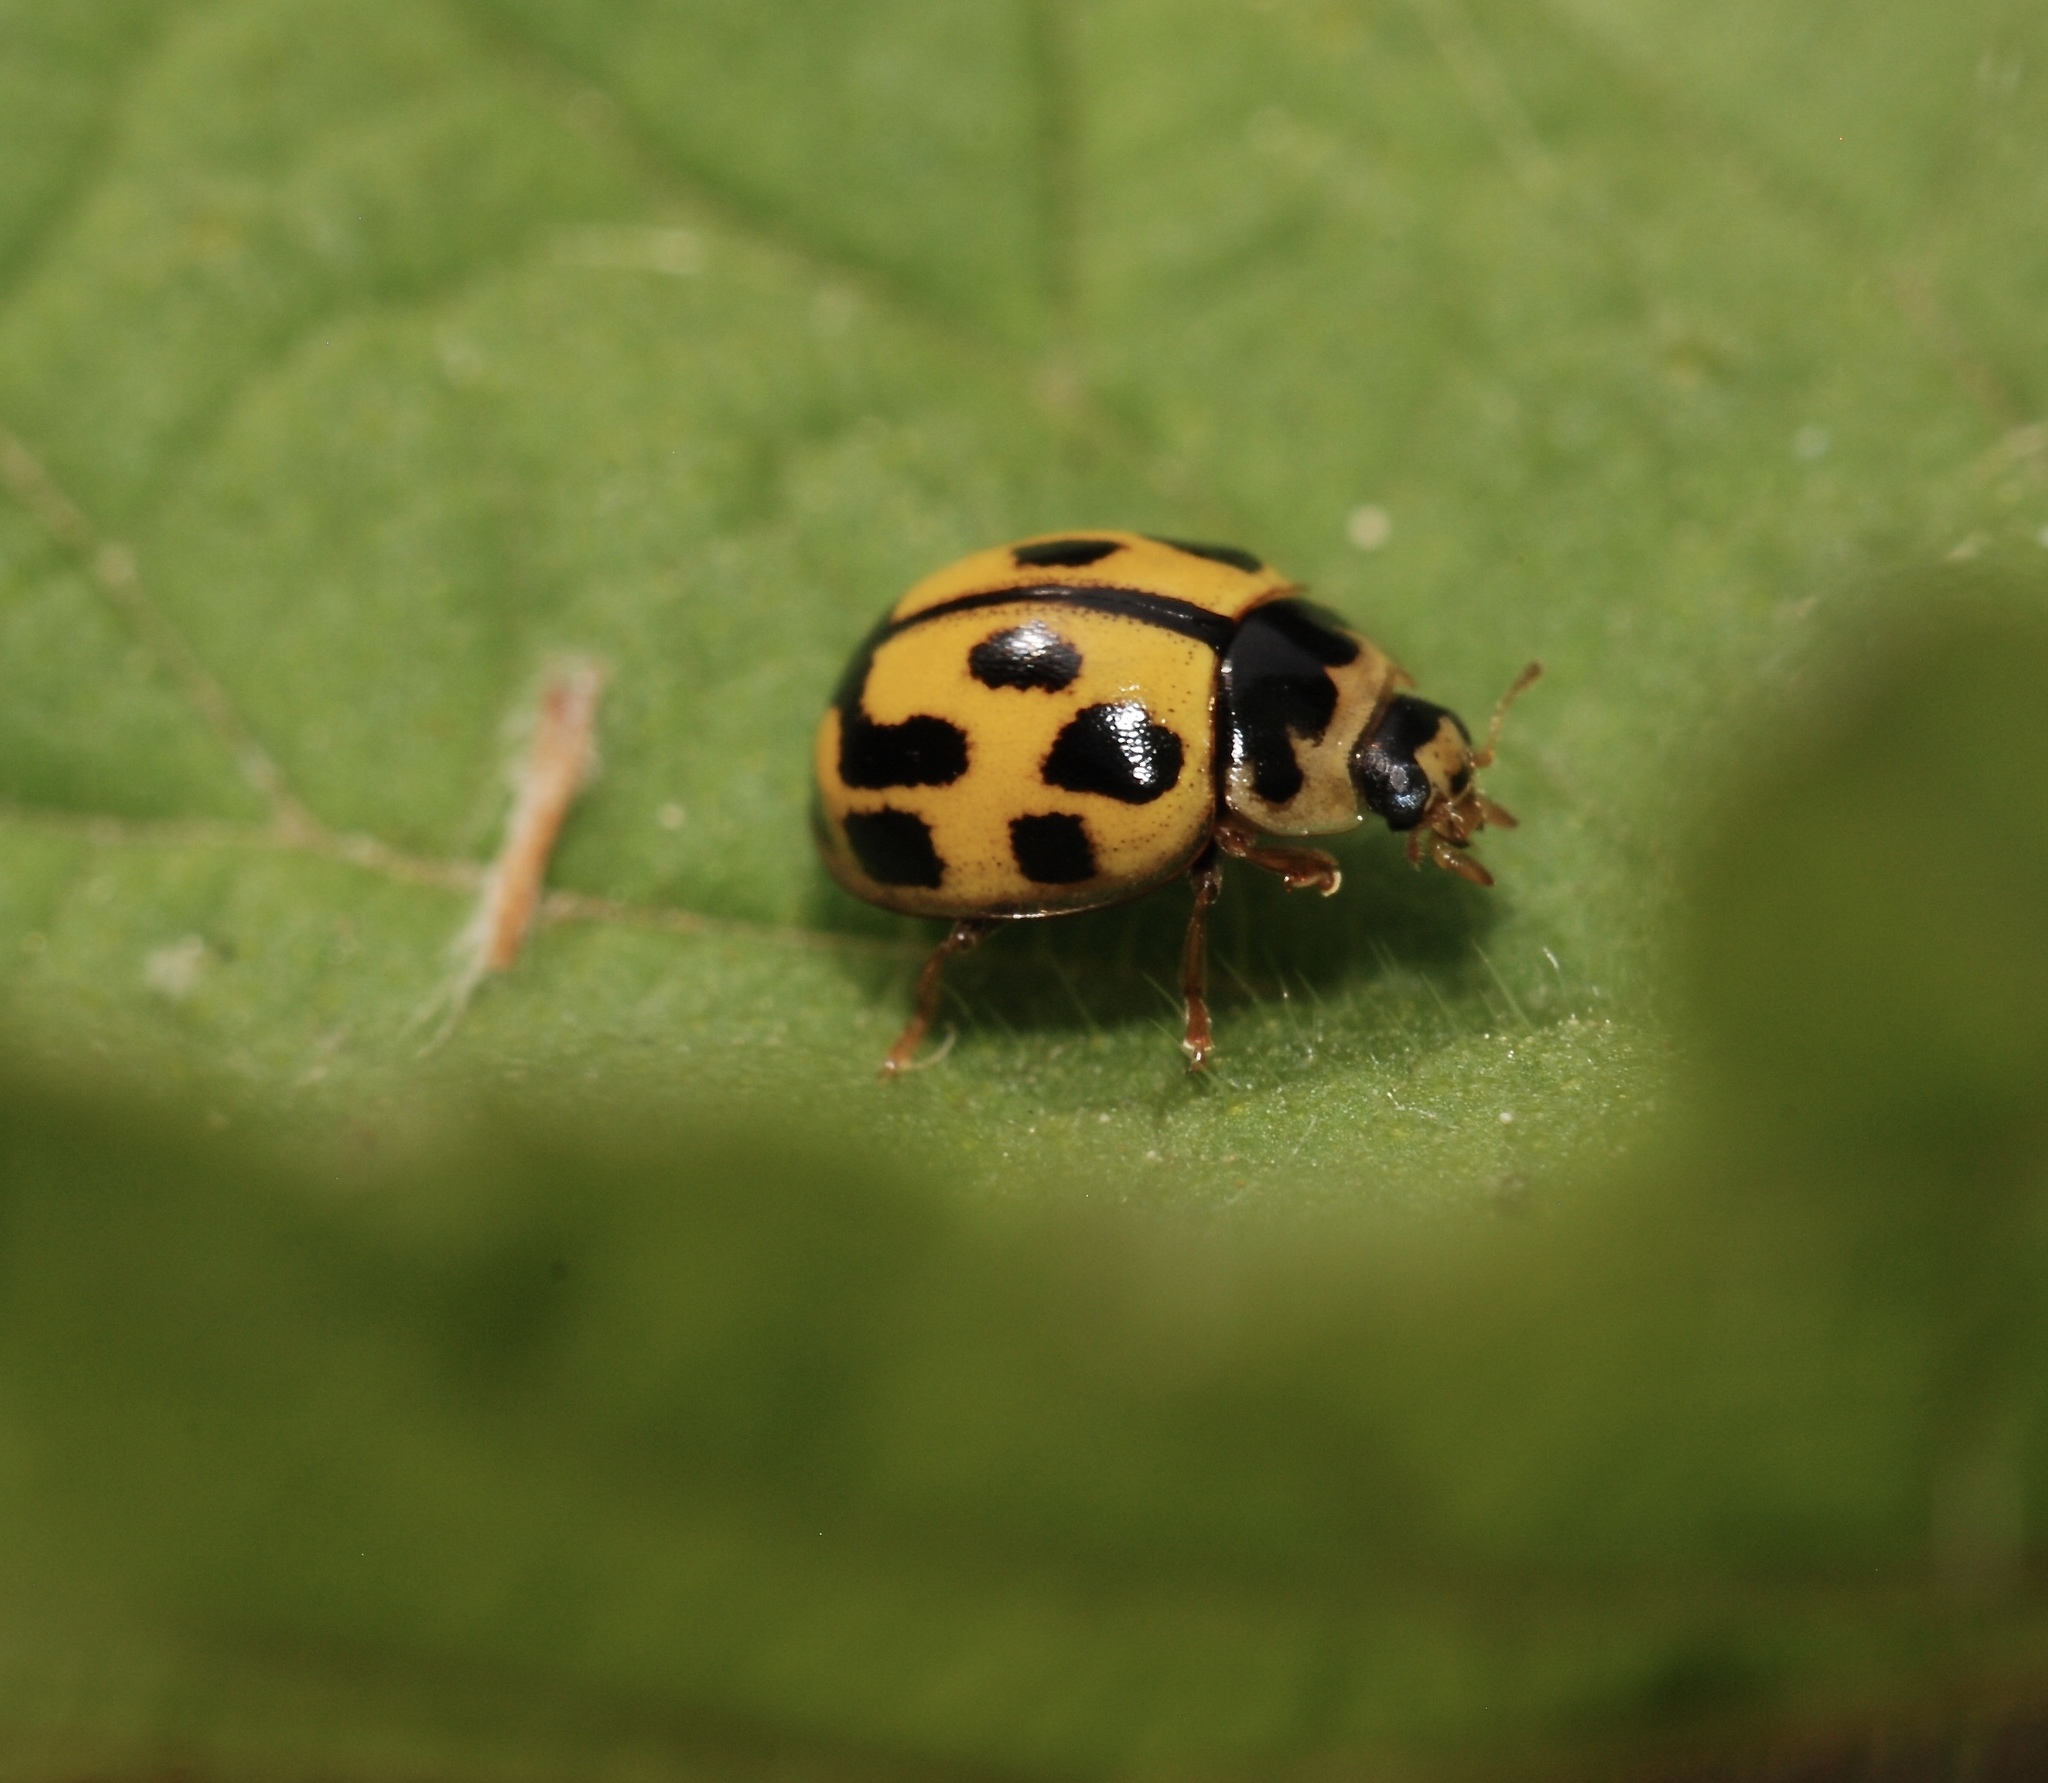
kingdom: Animalia
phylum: Arthropoda
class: Insecta
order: Coleoptera
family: Coccinellidae
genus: Propylaea
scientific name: Propylaea quatuordecimpunctata
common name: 14-spotted ladybird beetle
